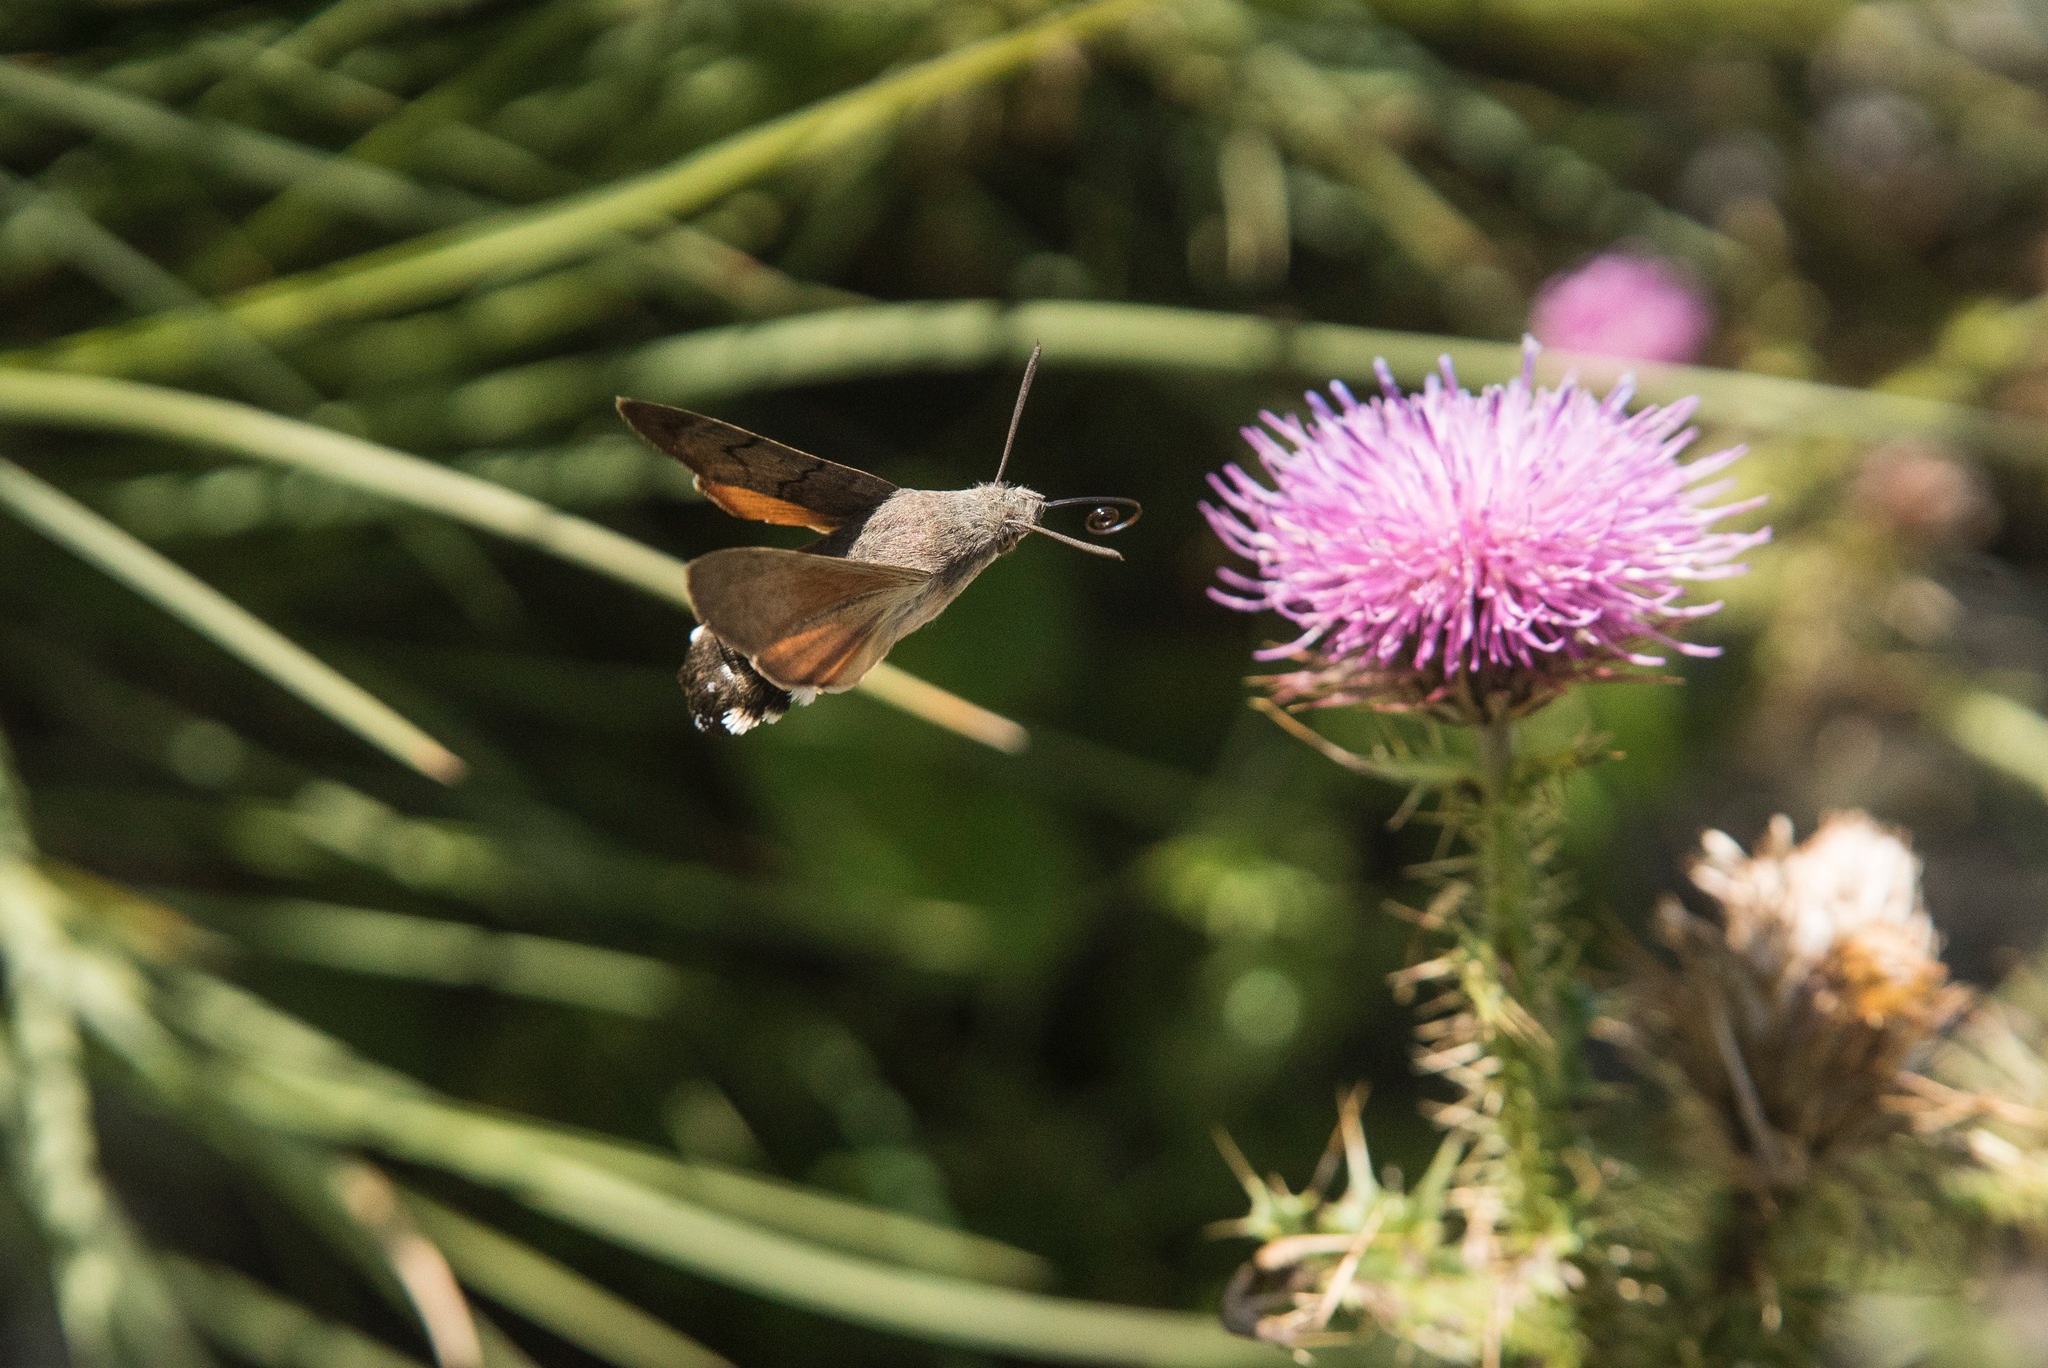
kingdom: Animalia
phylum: Arthropoda
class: Insecta
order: Lepidoptera
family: Sphingidae
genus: Macroglossum
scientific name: Macroglossum stellatarum
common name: Humming-bird hawk-moth
